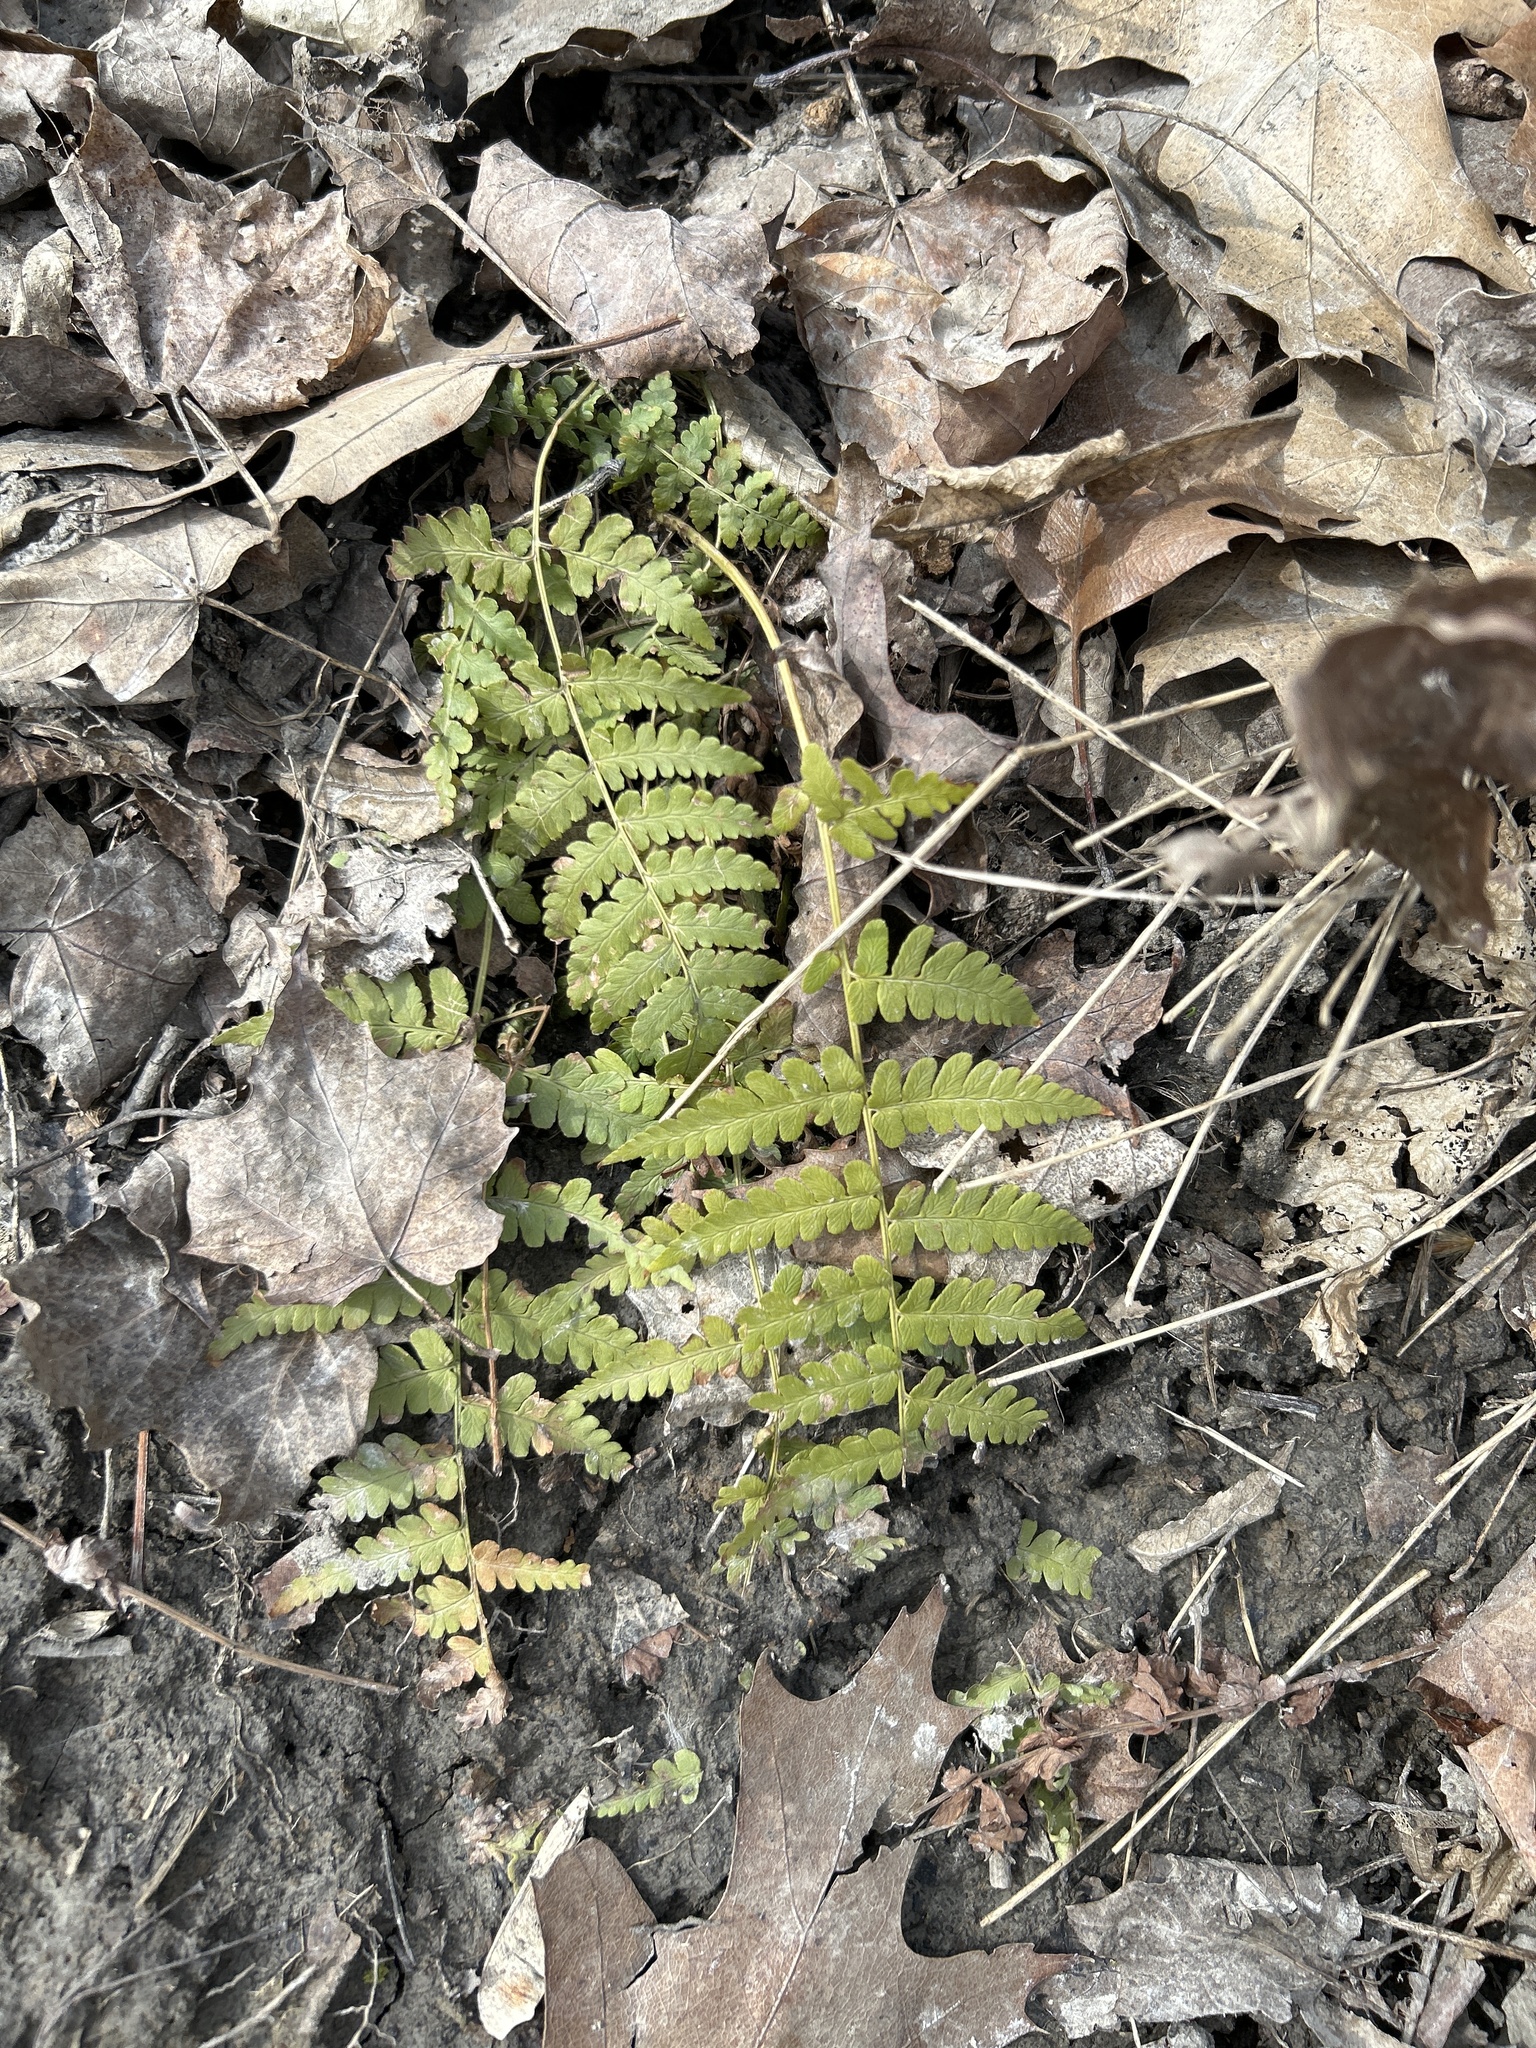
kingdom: Plantae
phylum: Tracheophyta
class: Polypodiopsida
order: Polypodiales
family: Dryopteridaceae
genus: Dryopteris
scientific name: Dryopteris marginalis
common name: Marginal wood fern
